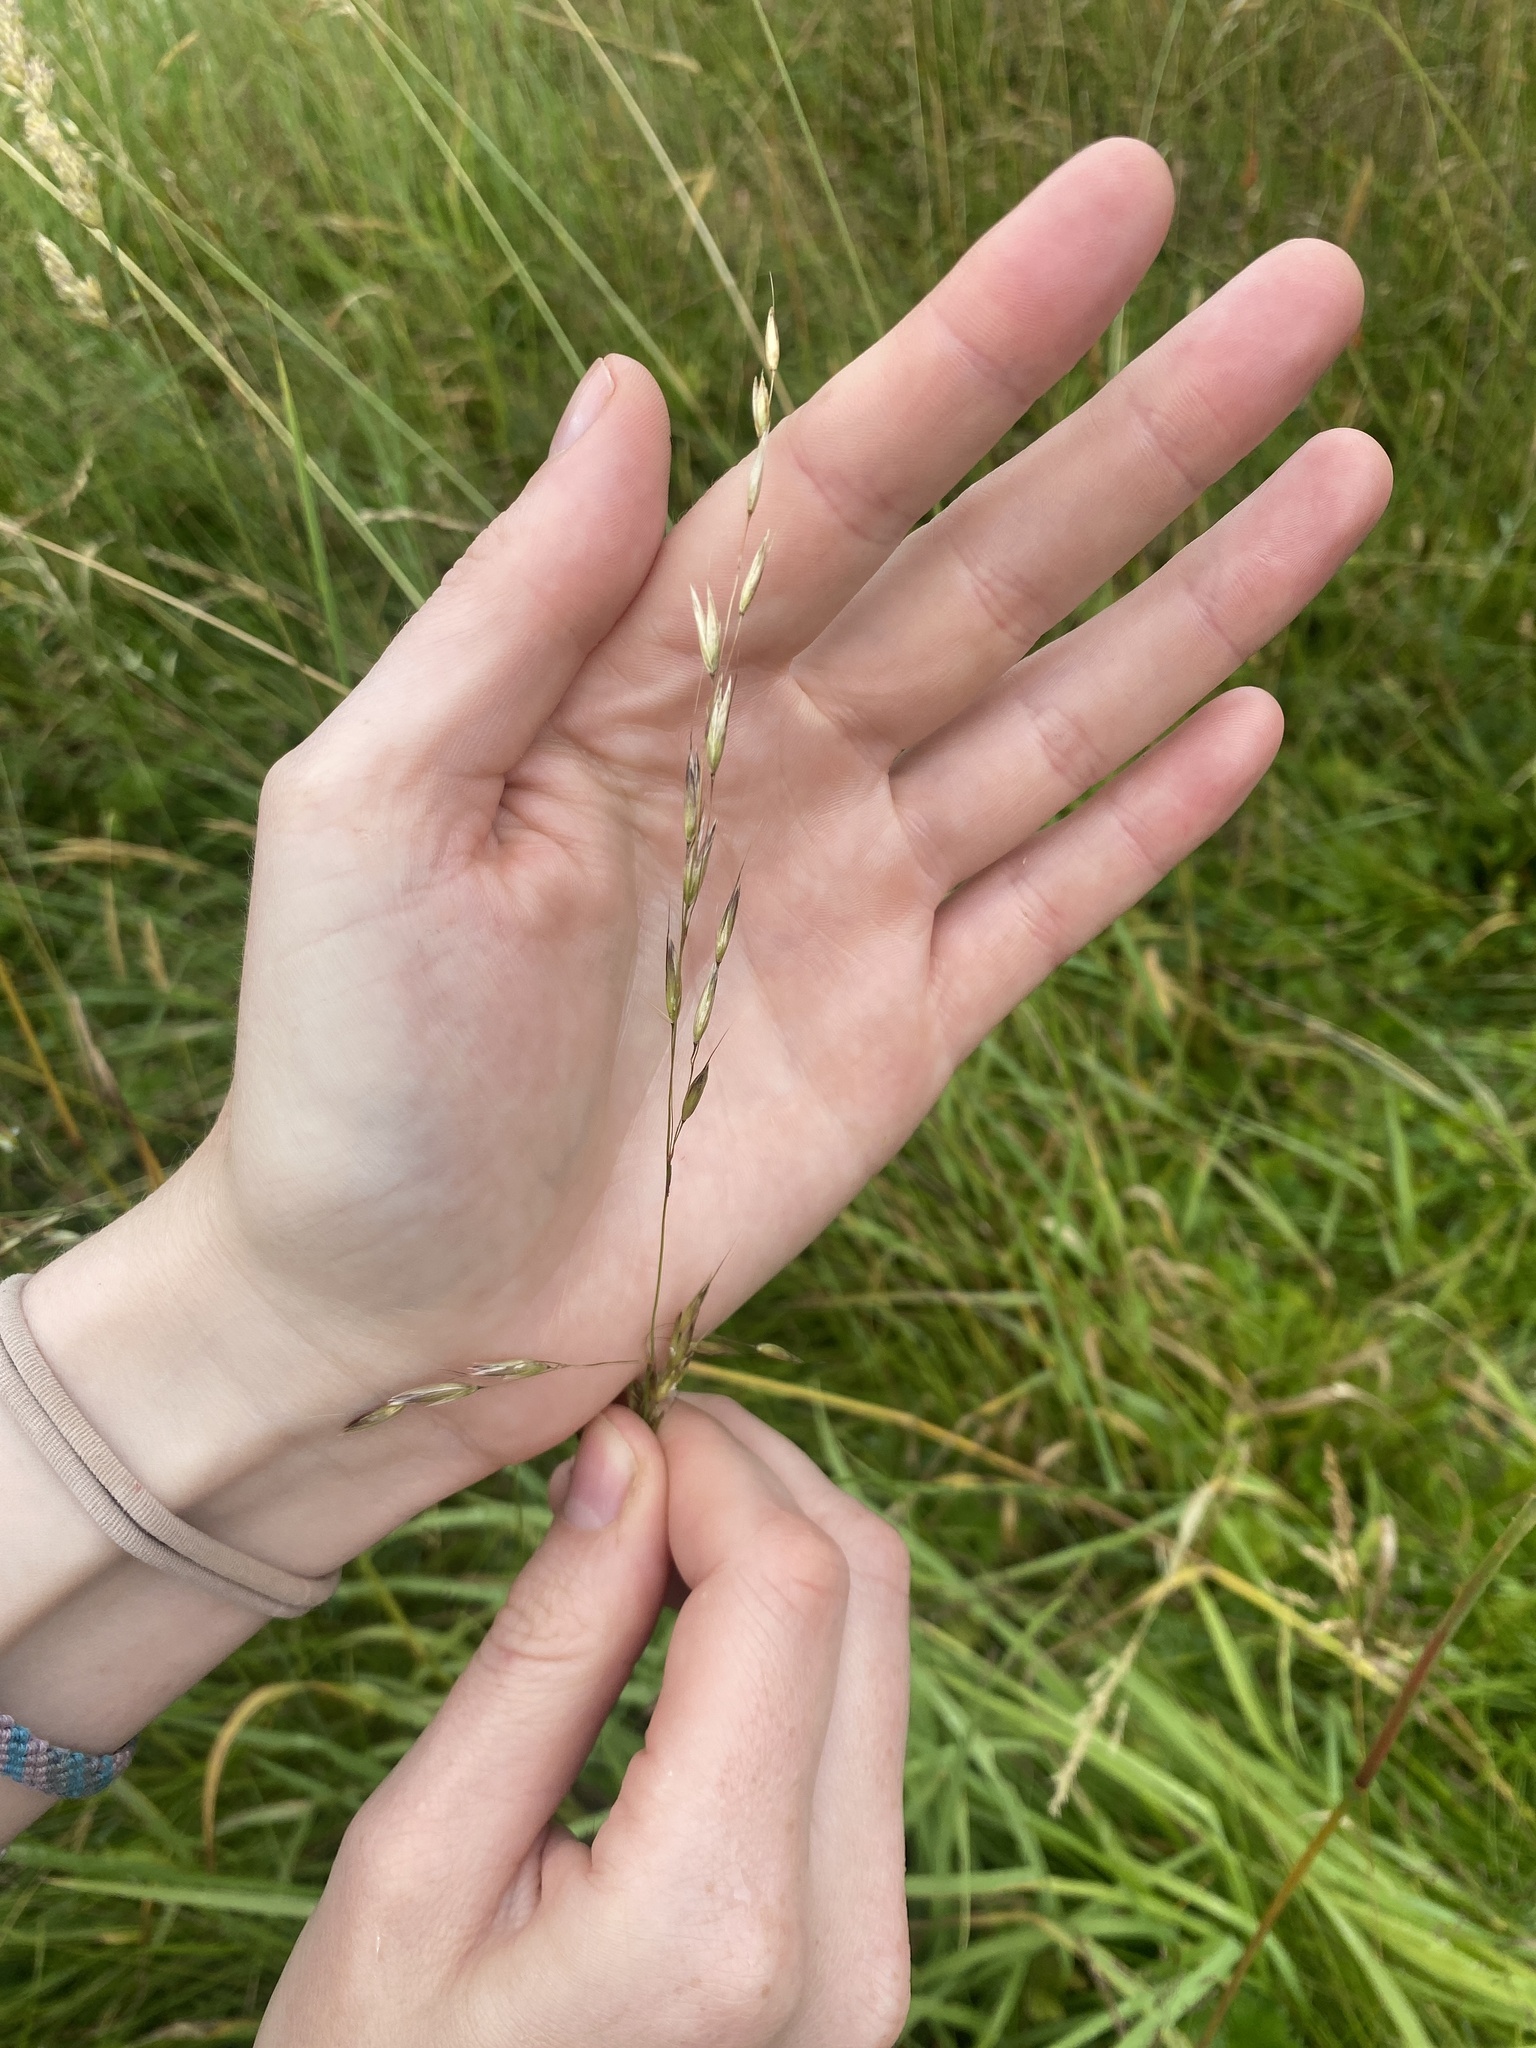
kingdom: Plantae
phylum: Tracheophyta
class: Liliopsida
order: Poales
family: Poaceae
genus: Arrhenatherum
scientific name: Arrhenatherum elatius
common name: Tall oatgrass
